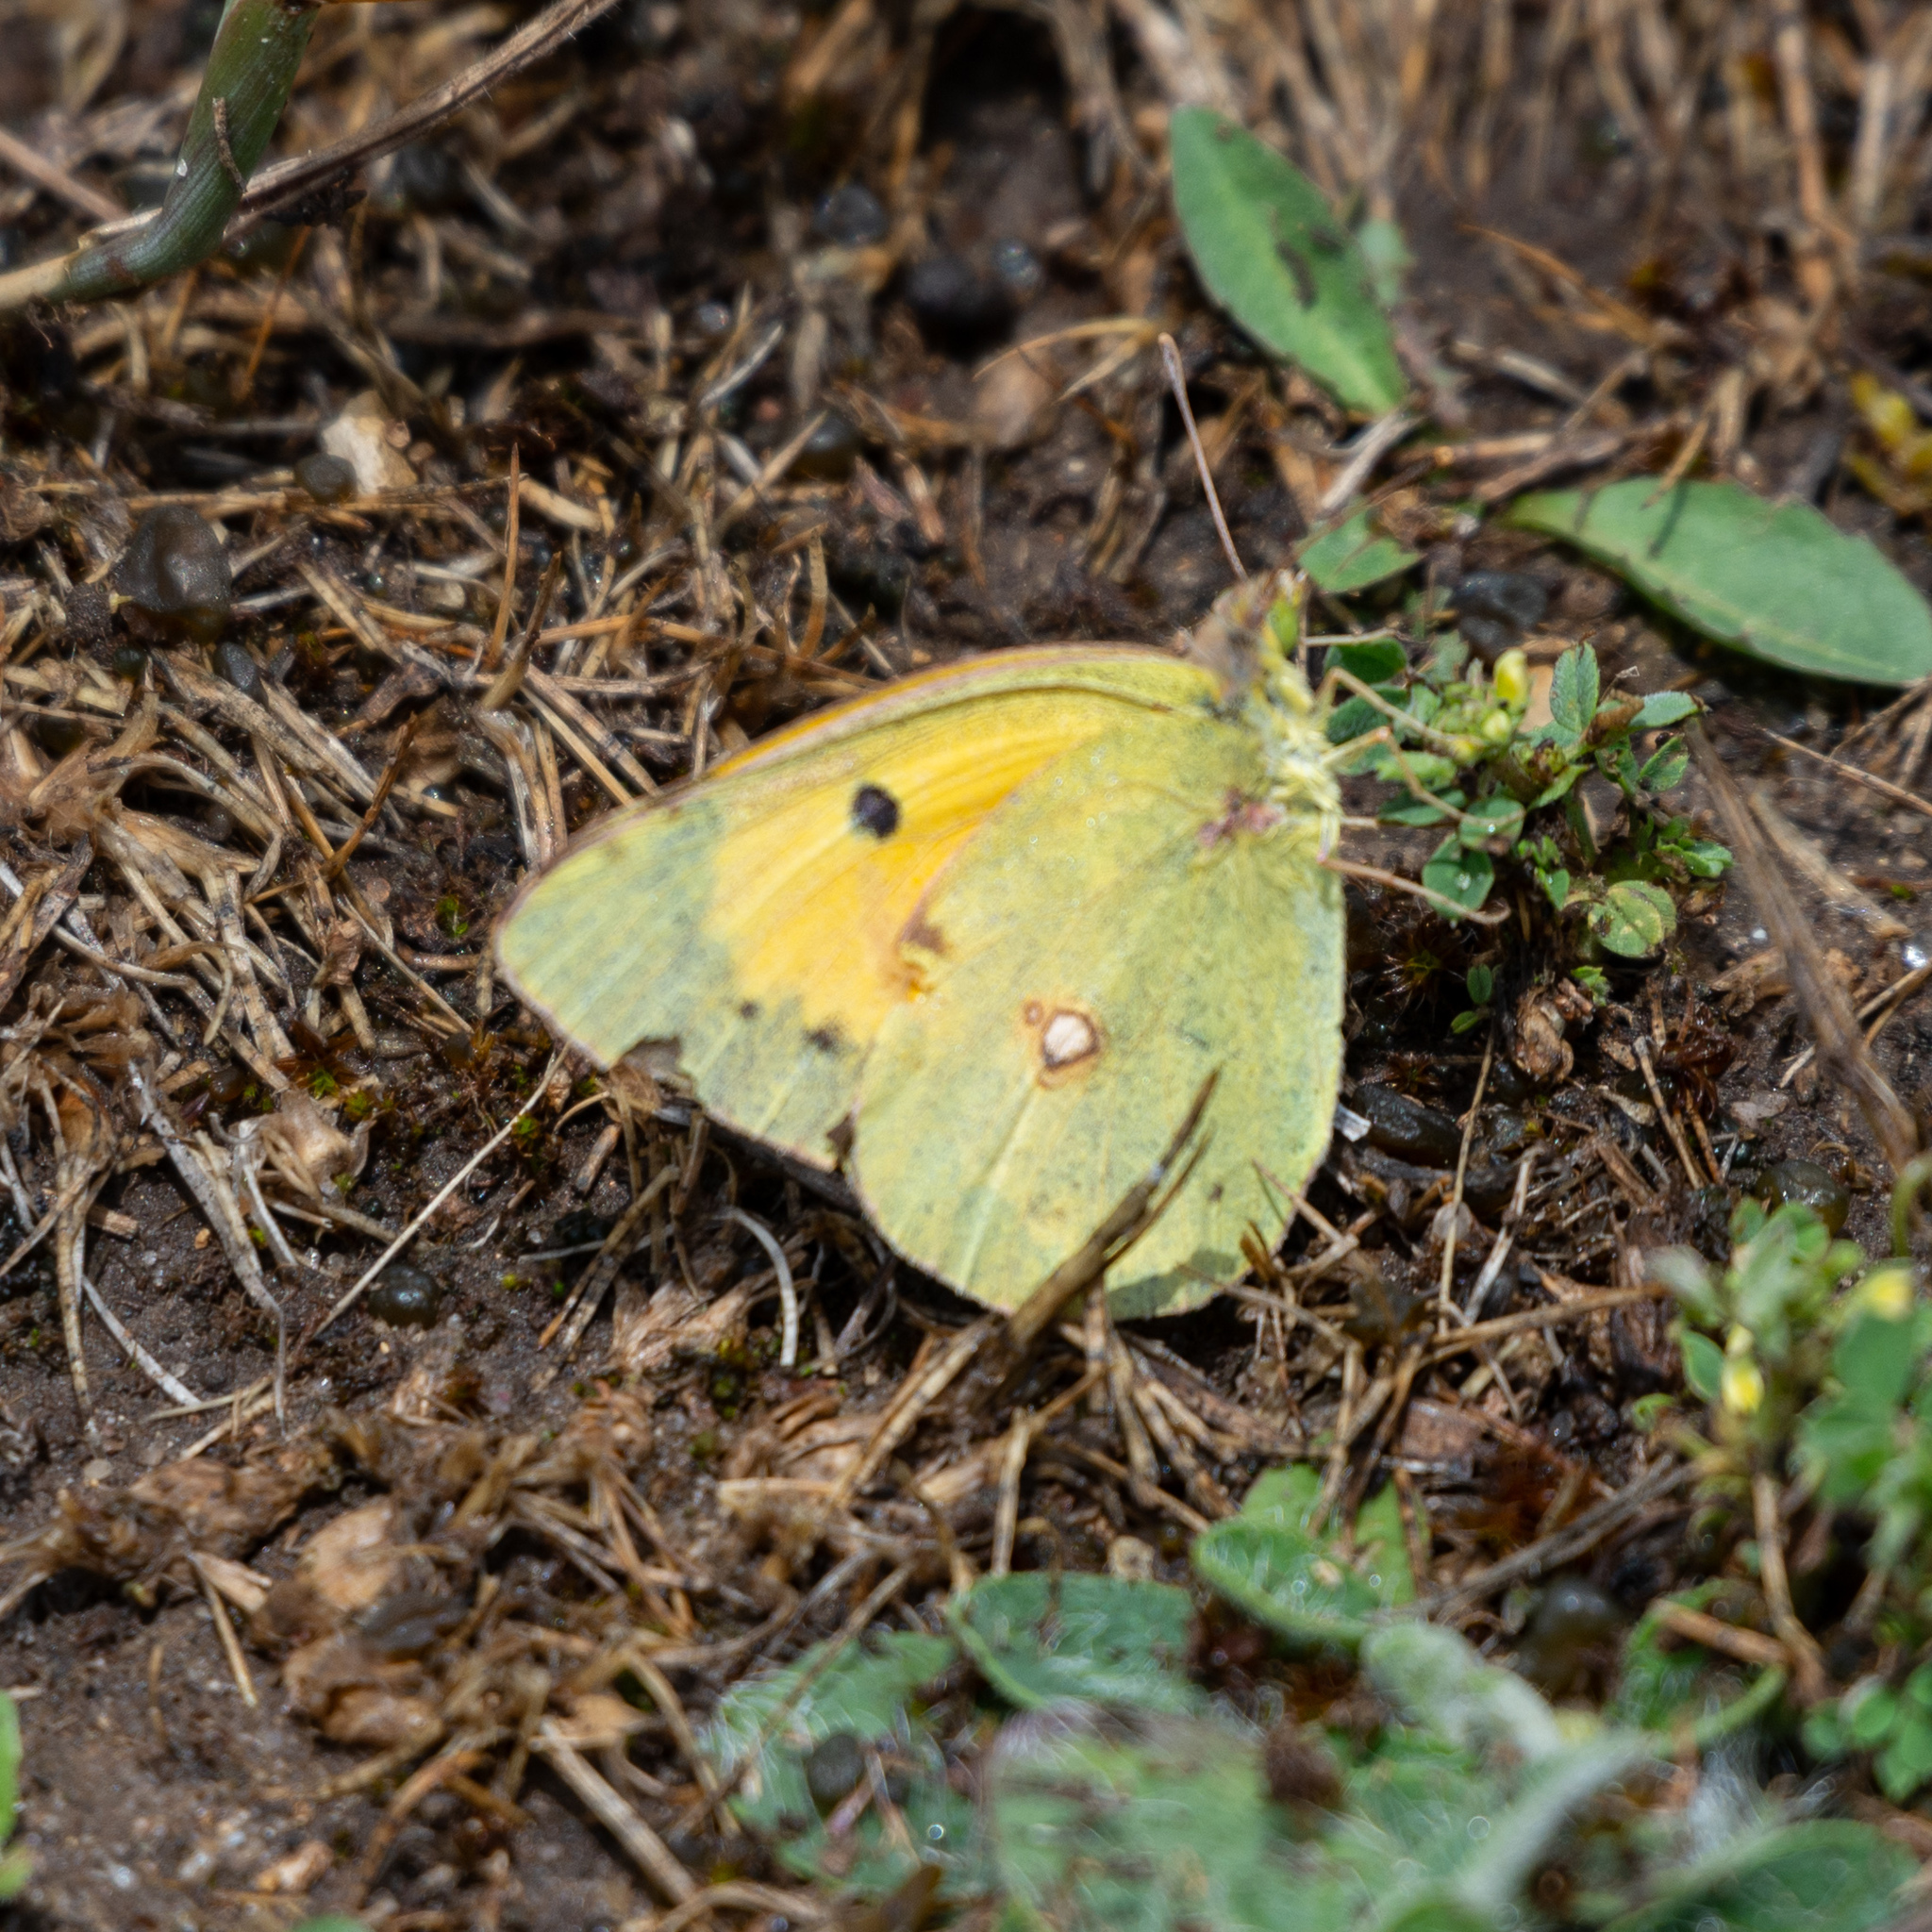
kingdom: Animalia
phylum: Arthropoda
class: Insecta
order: Lepidoptera
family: Pieridae
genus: Colias
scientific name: Colias croceus
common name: Clouded yellow
